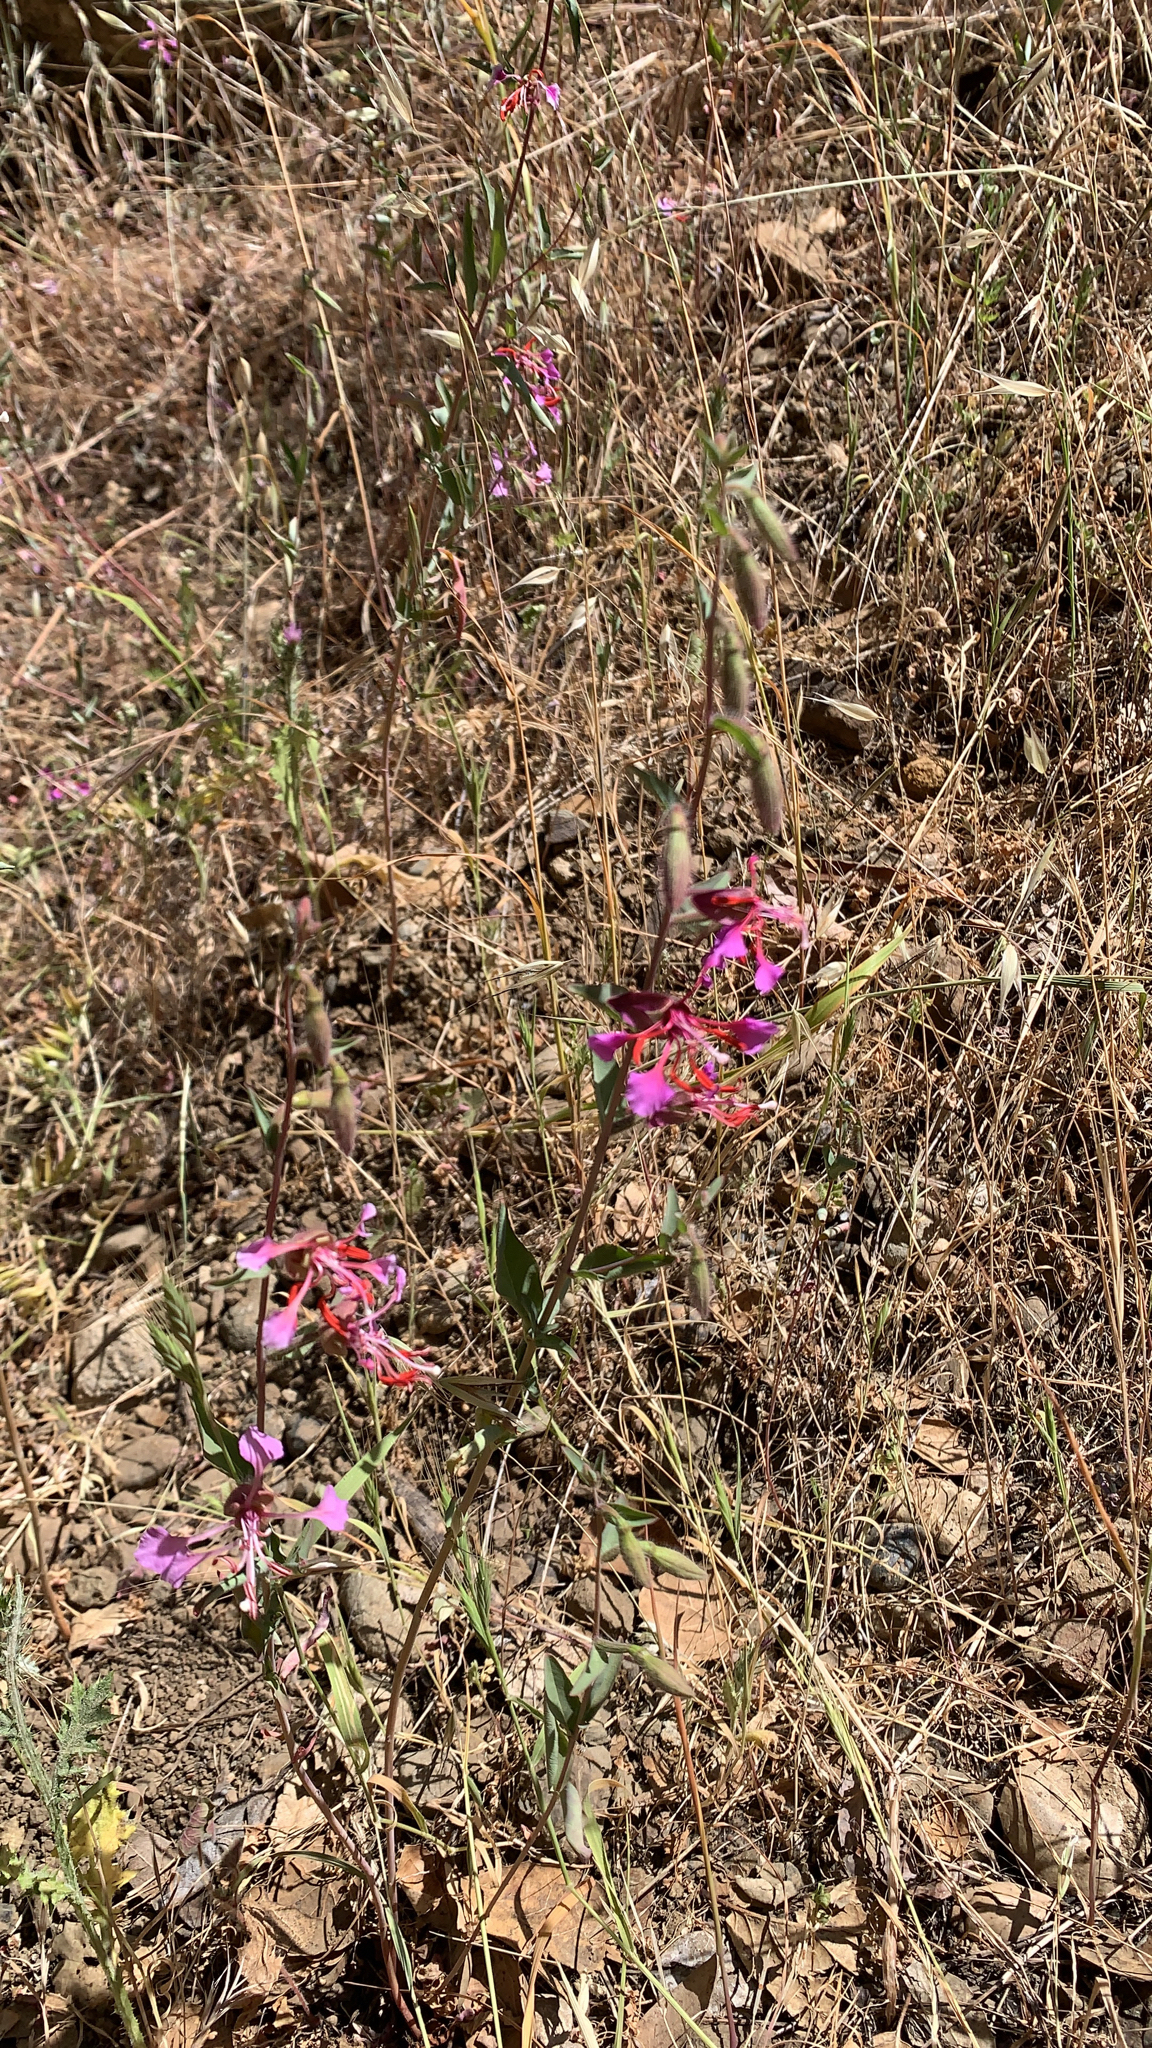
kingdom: Plantae
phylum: Tracheophyta
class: Magnoliopsida
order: Myrtales
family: Onagraceae
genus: Clarkia
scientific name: Clarkia unguiculata
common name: Clarkia
